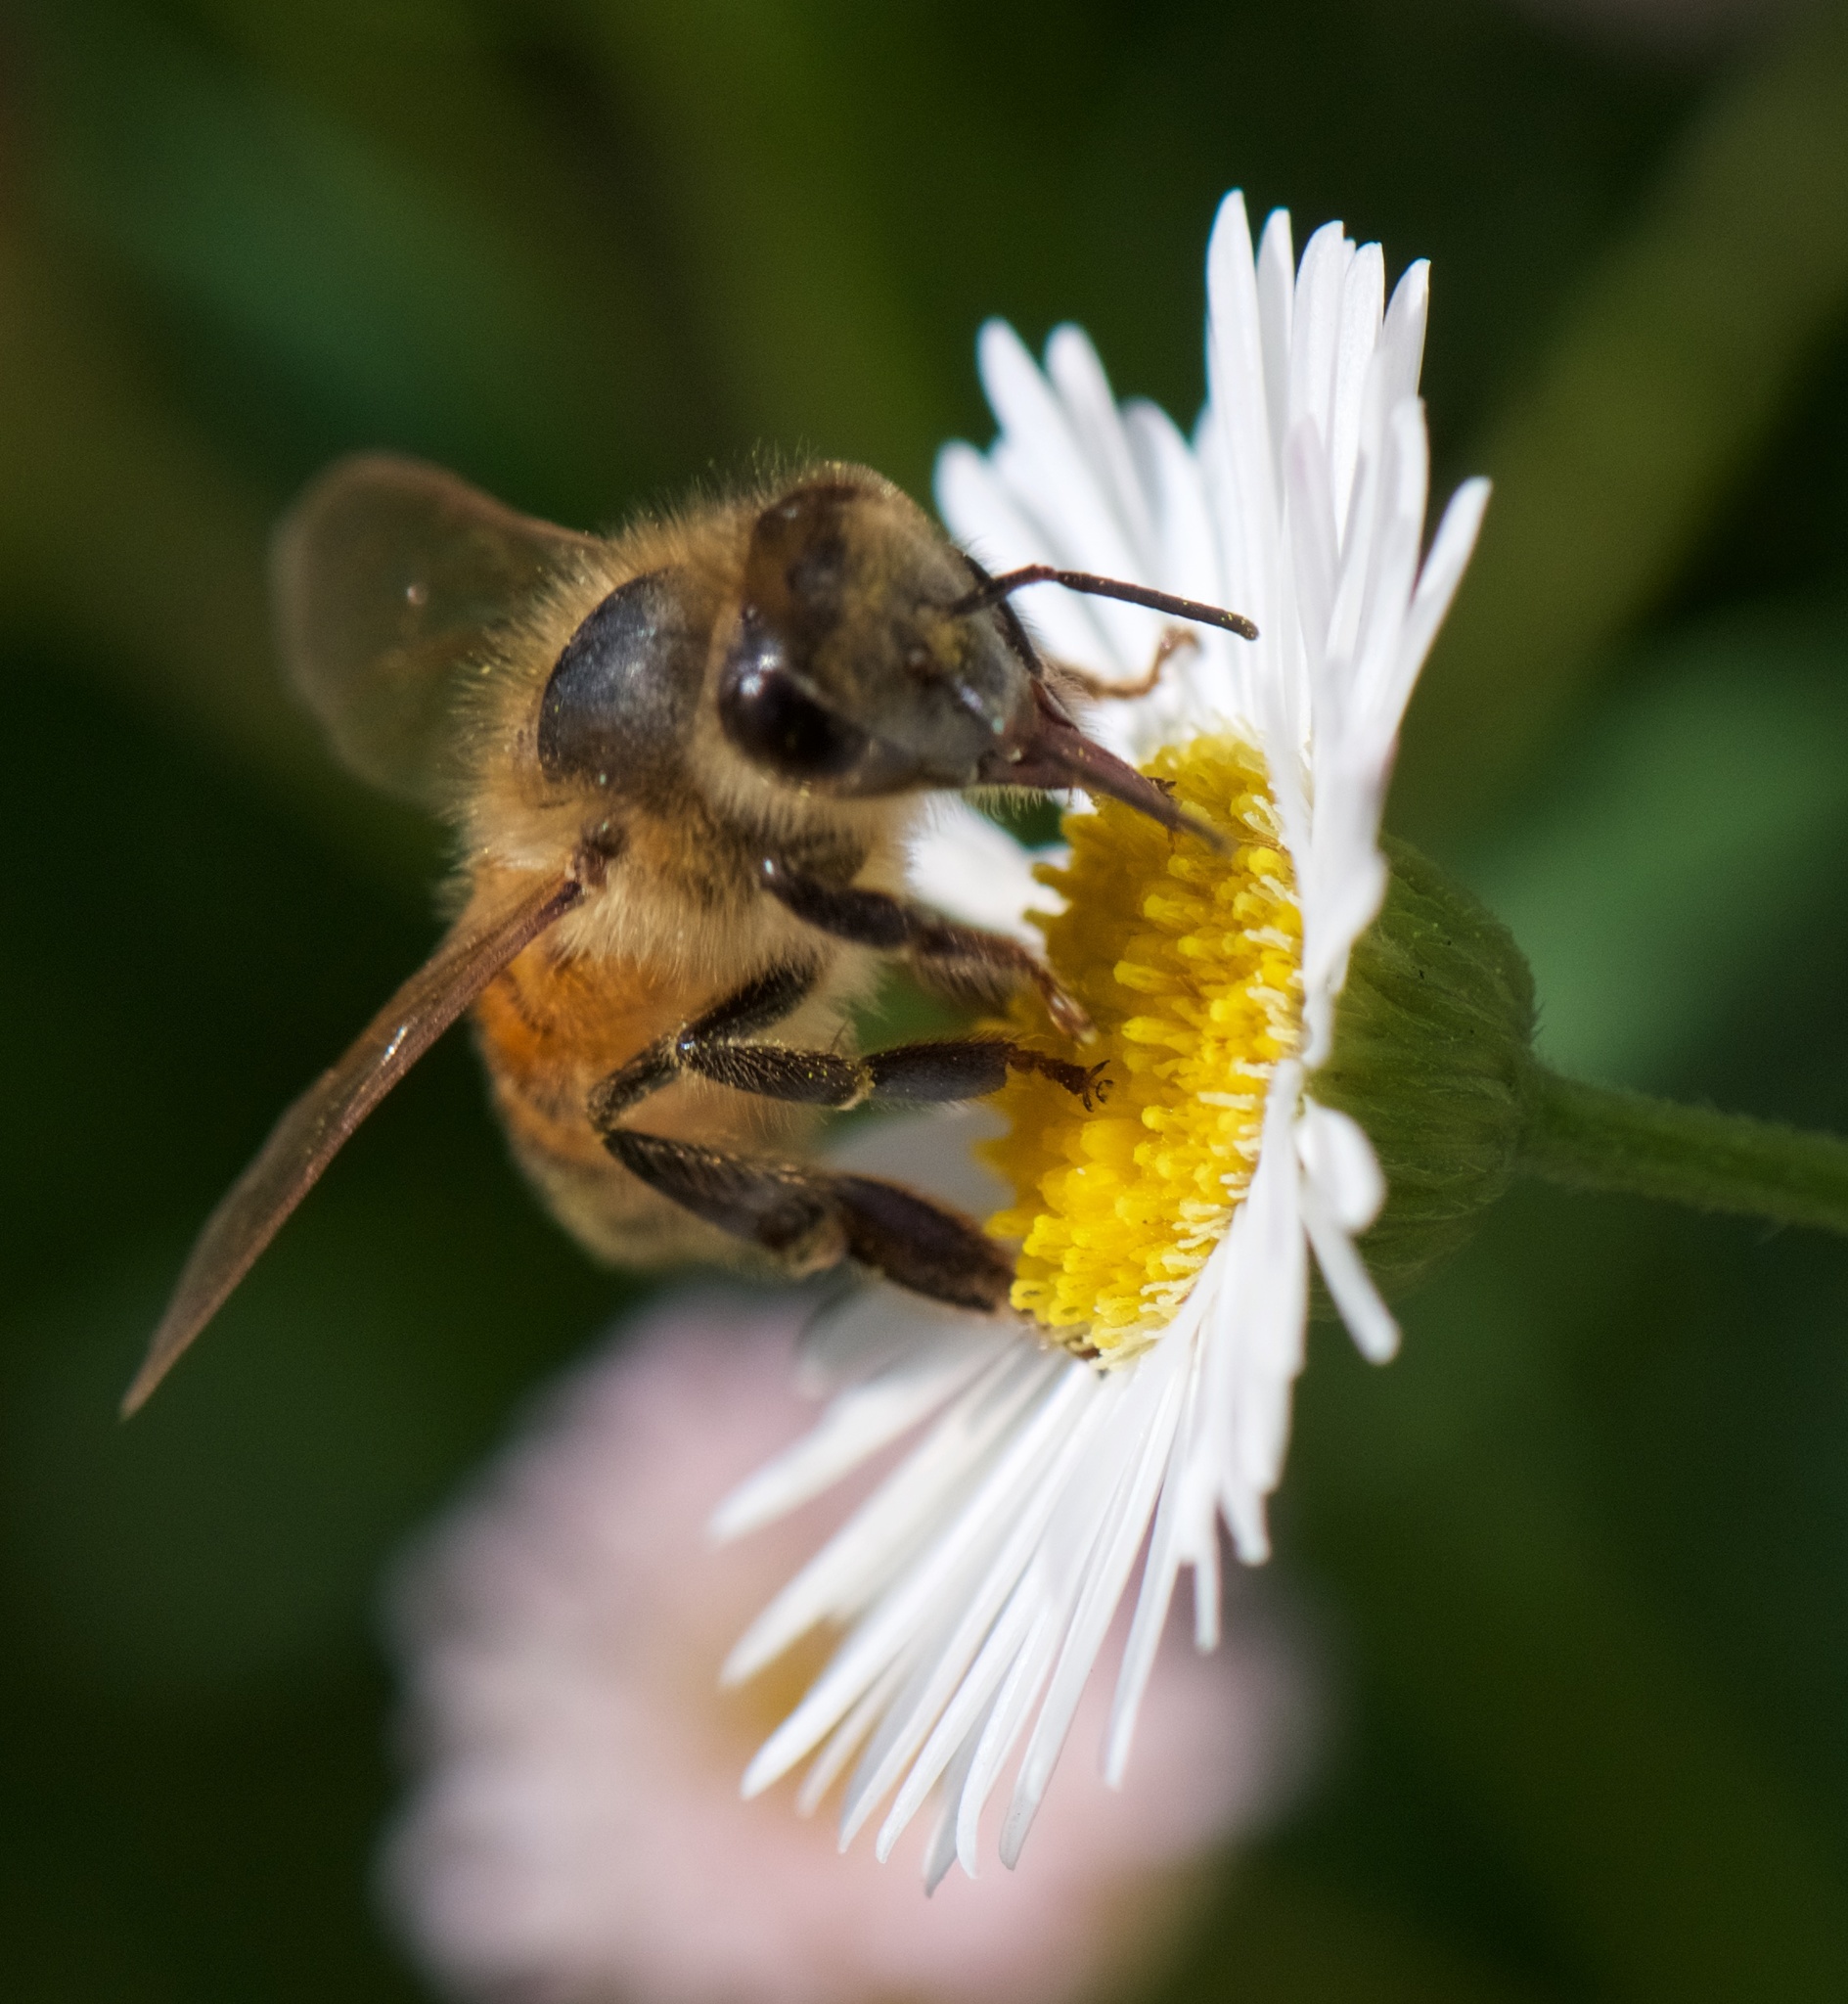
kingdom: Animalia
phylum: Arthropoda
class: Insecta
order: Hymenoptera
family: Apidae
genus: Apis
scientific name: Apis mellifera
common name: Honey bee
